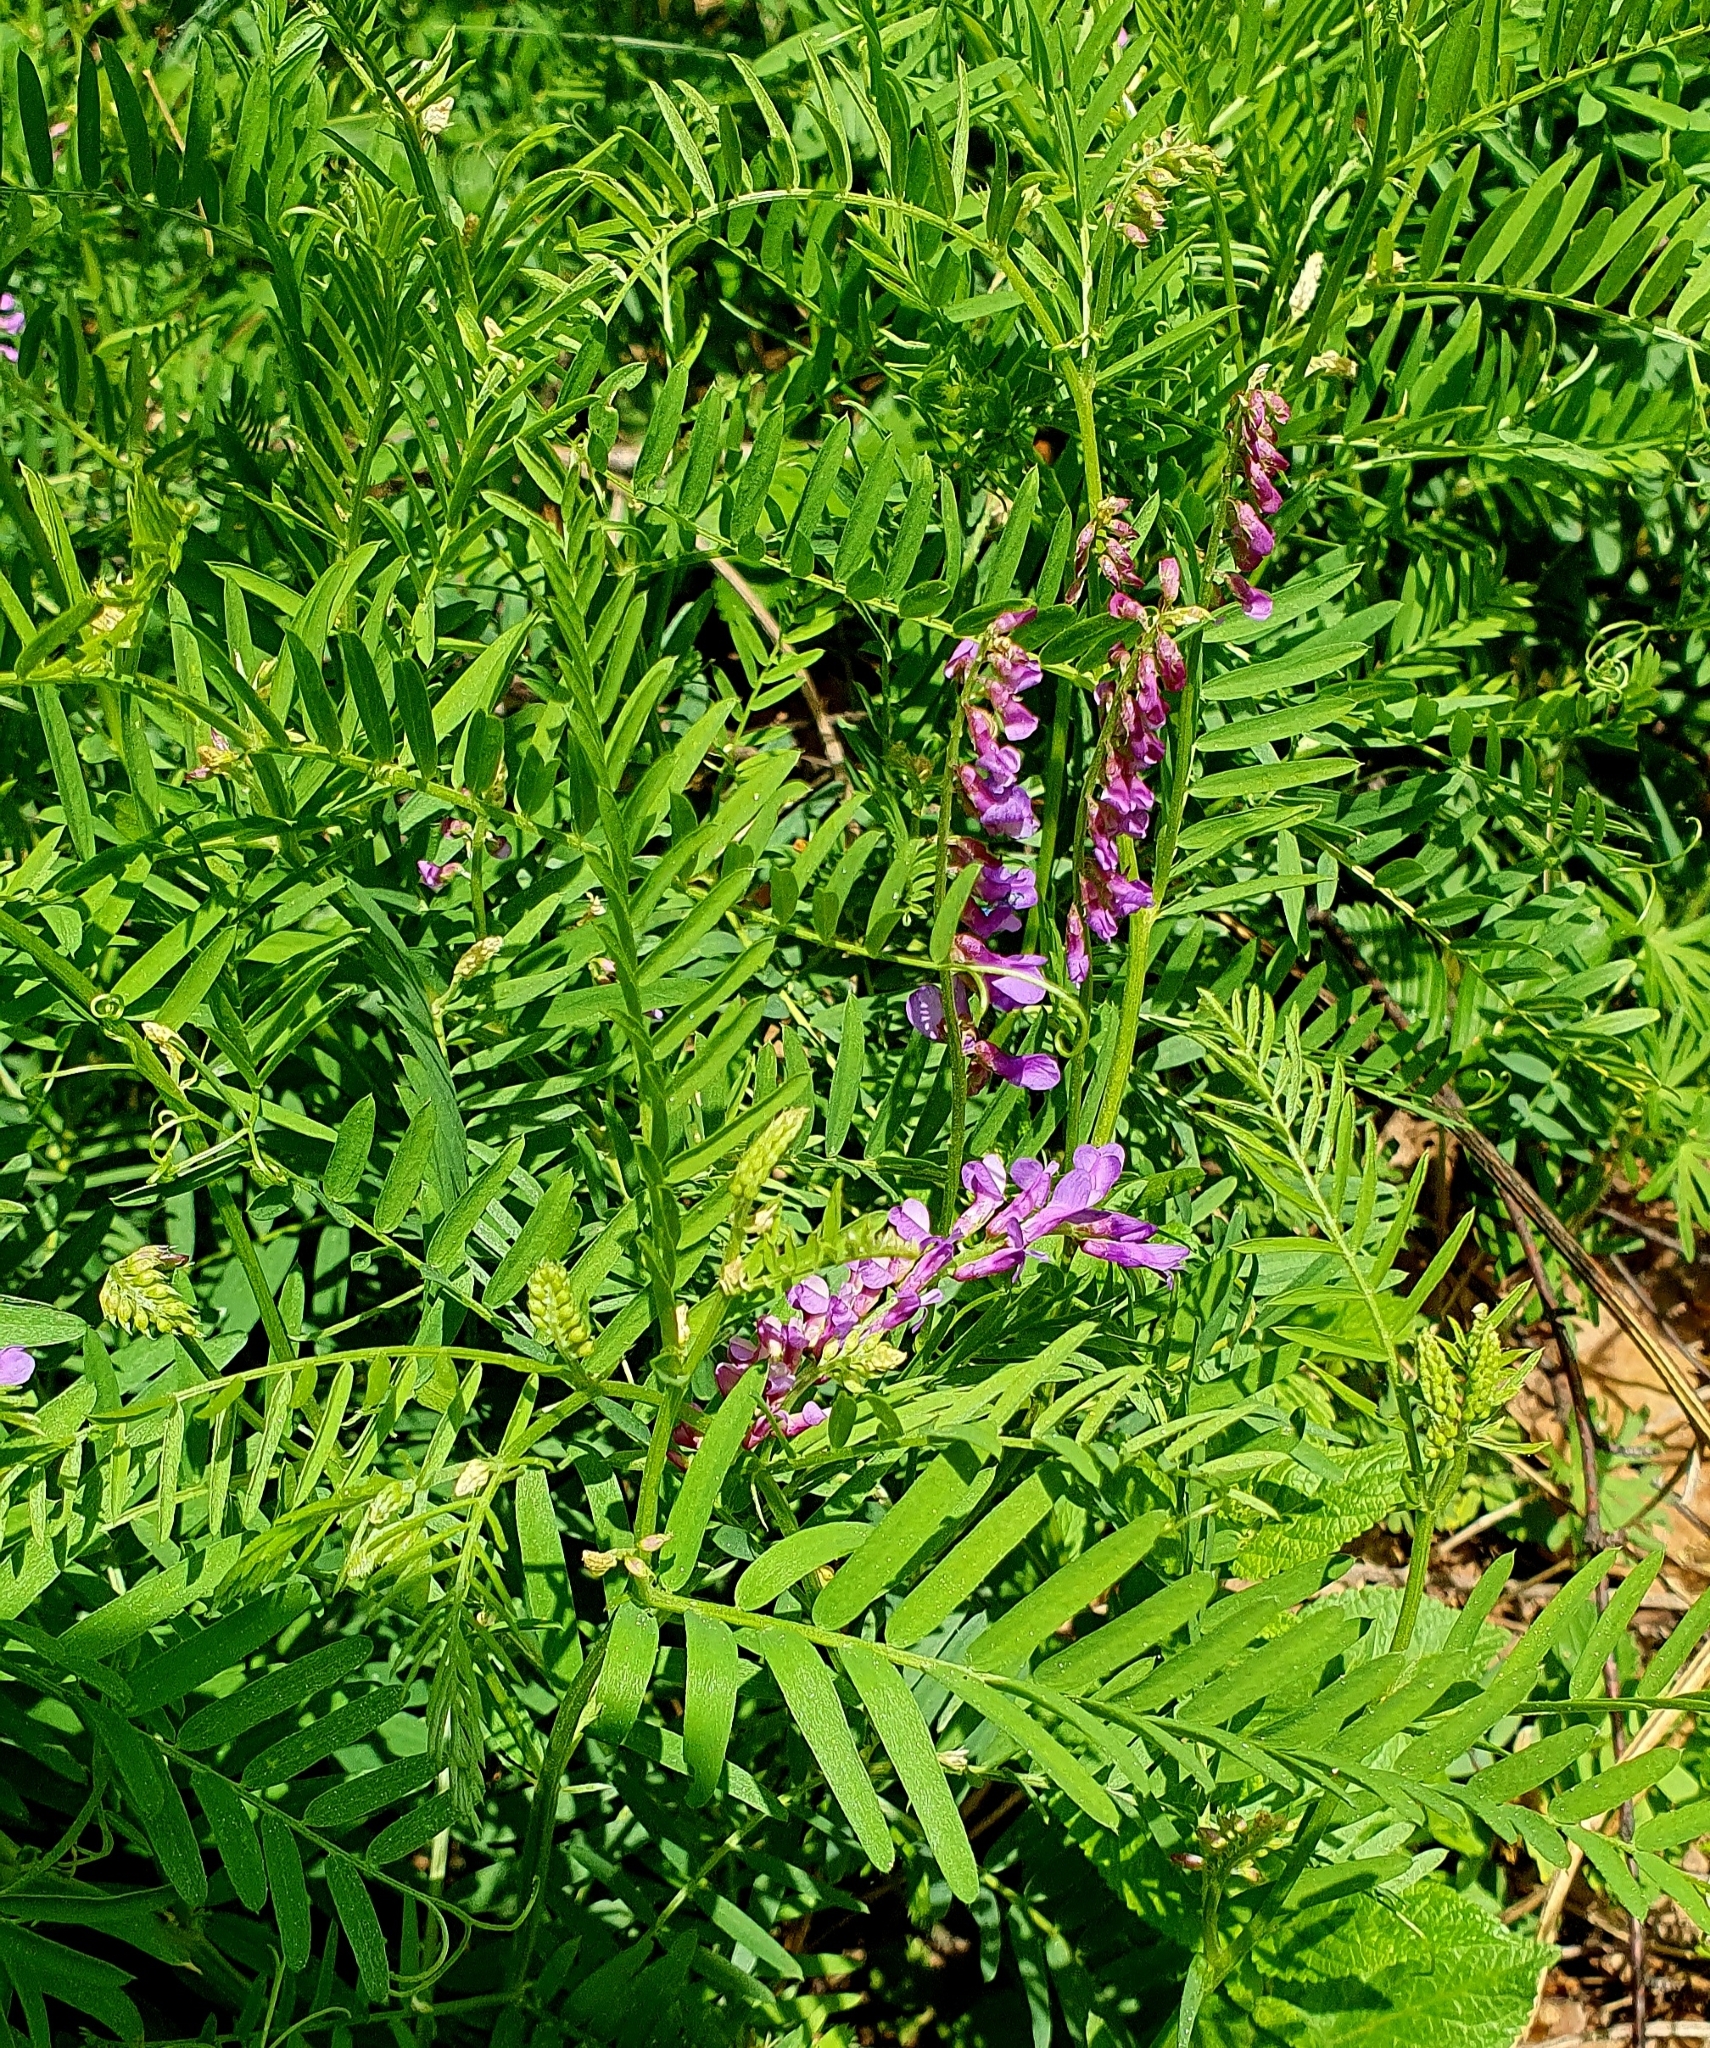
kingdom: Plantae
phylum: Tracheophyta
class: Magnoliopsida
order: Fabales
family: Fabaceae
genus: Vicia
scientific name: Vicia tenuifolia
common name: Fine-leaved vetch
